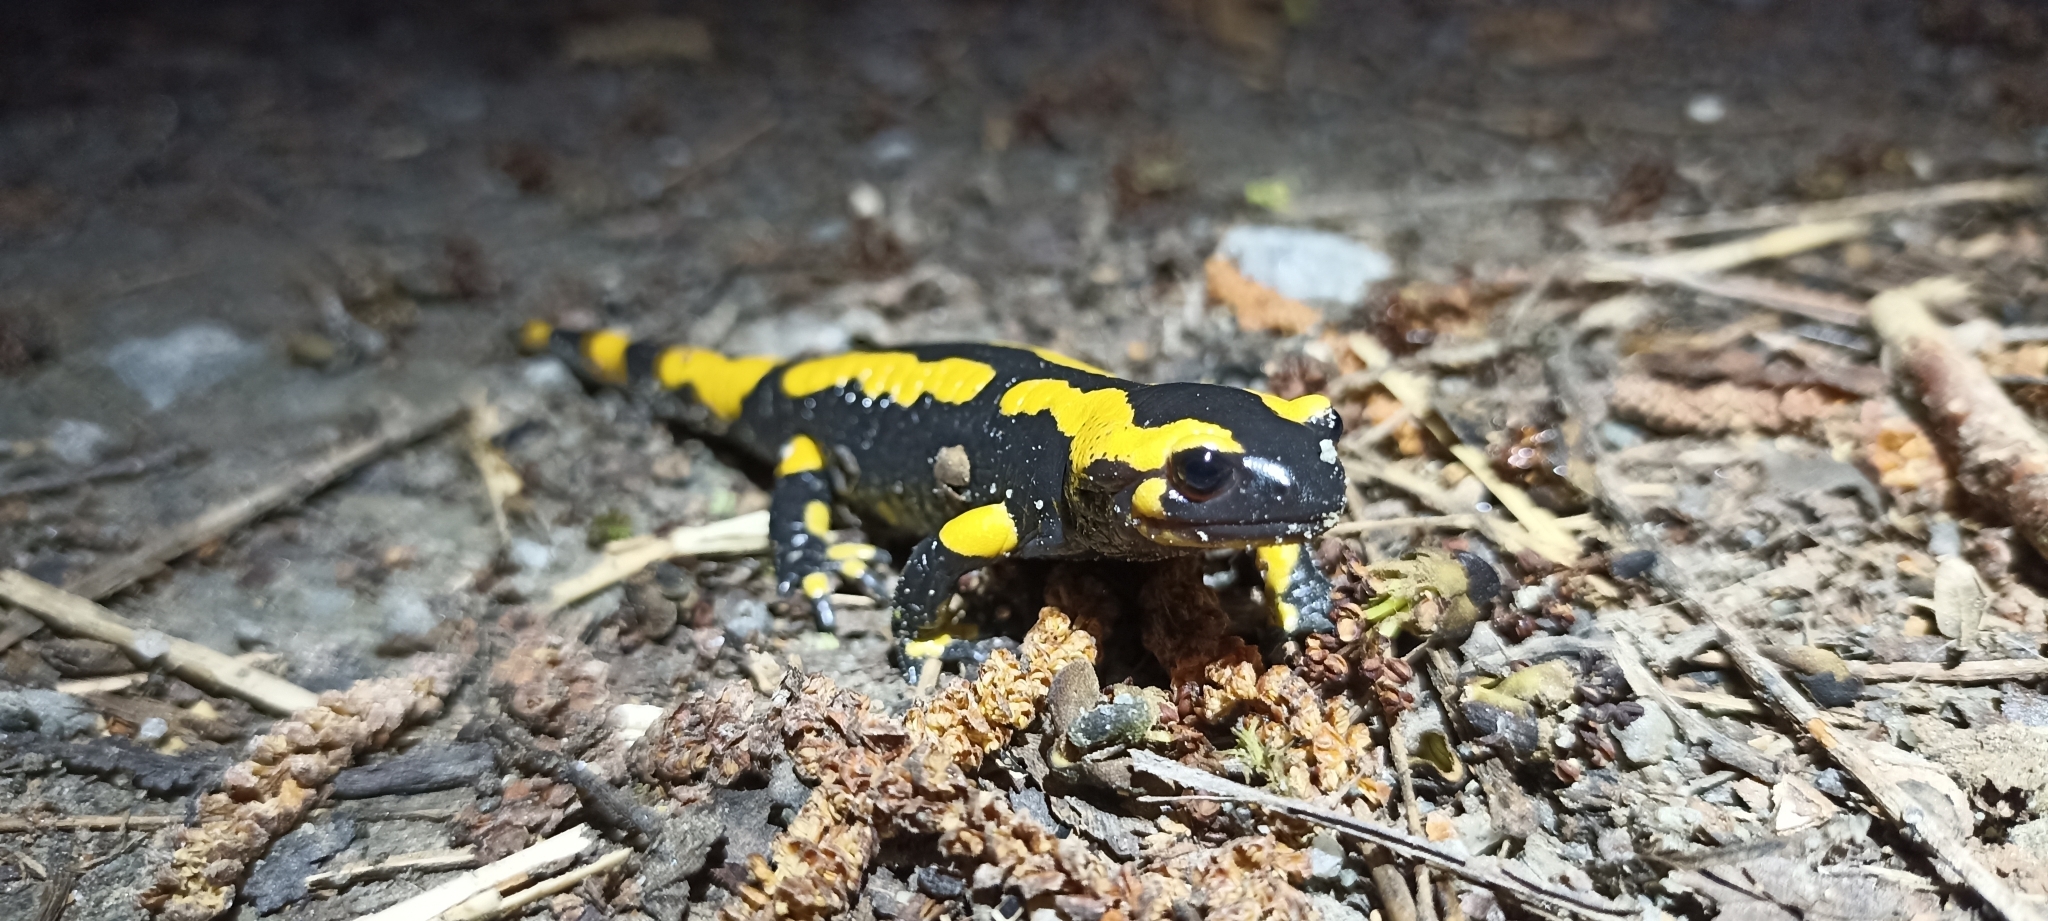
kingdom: Animalia
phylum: Chordata
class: Amphibia
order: Caudata
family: Salamandridae
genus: Salamandra
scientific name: Salamandra salamandra
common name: Fire salamander
